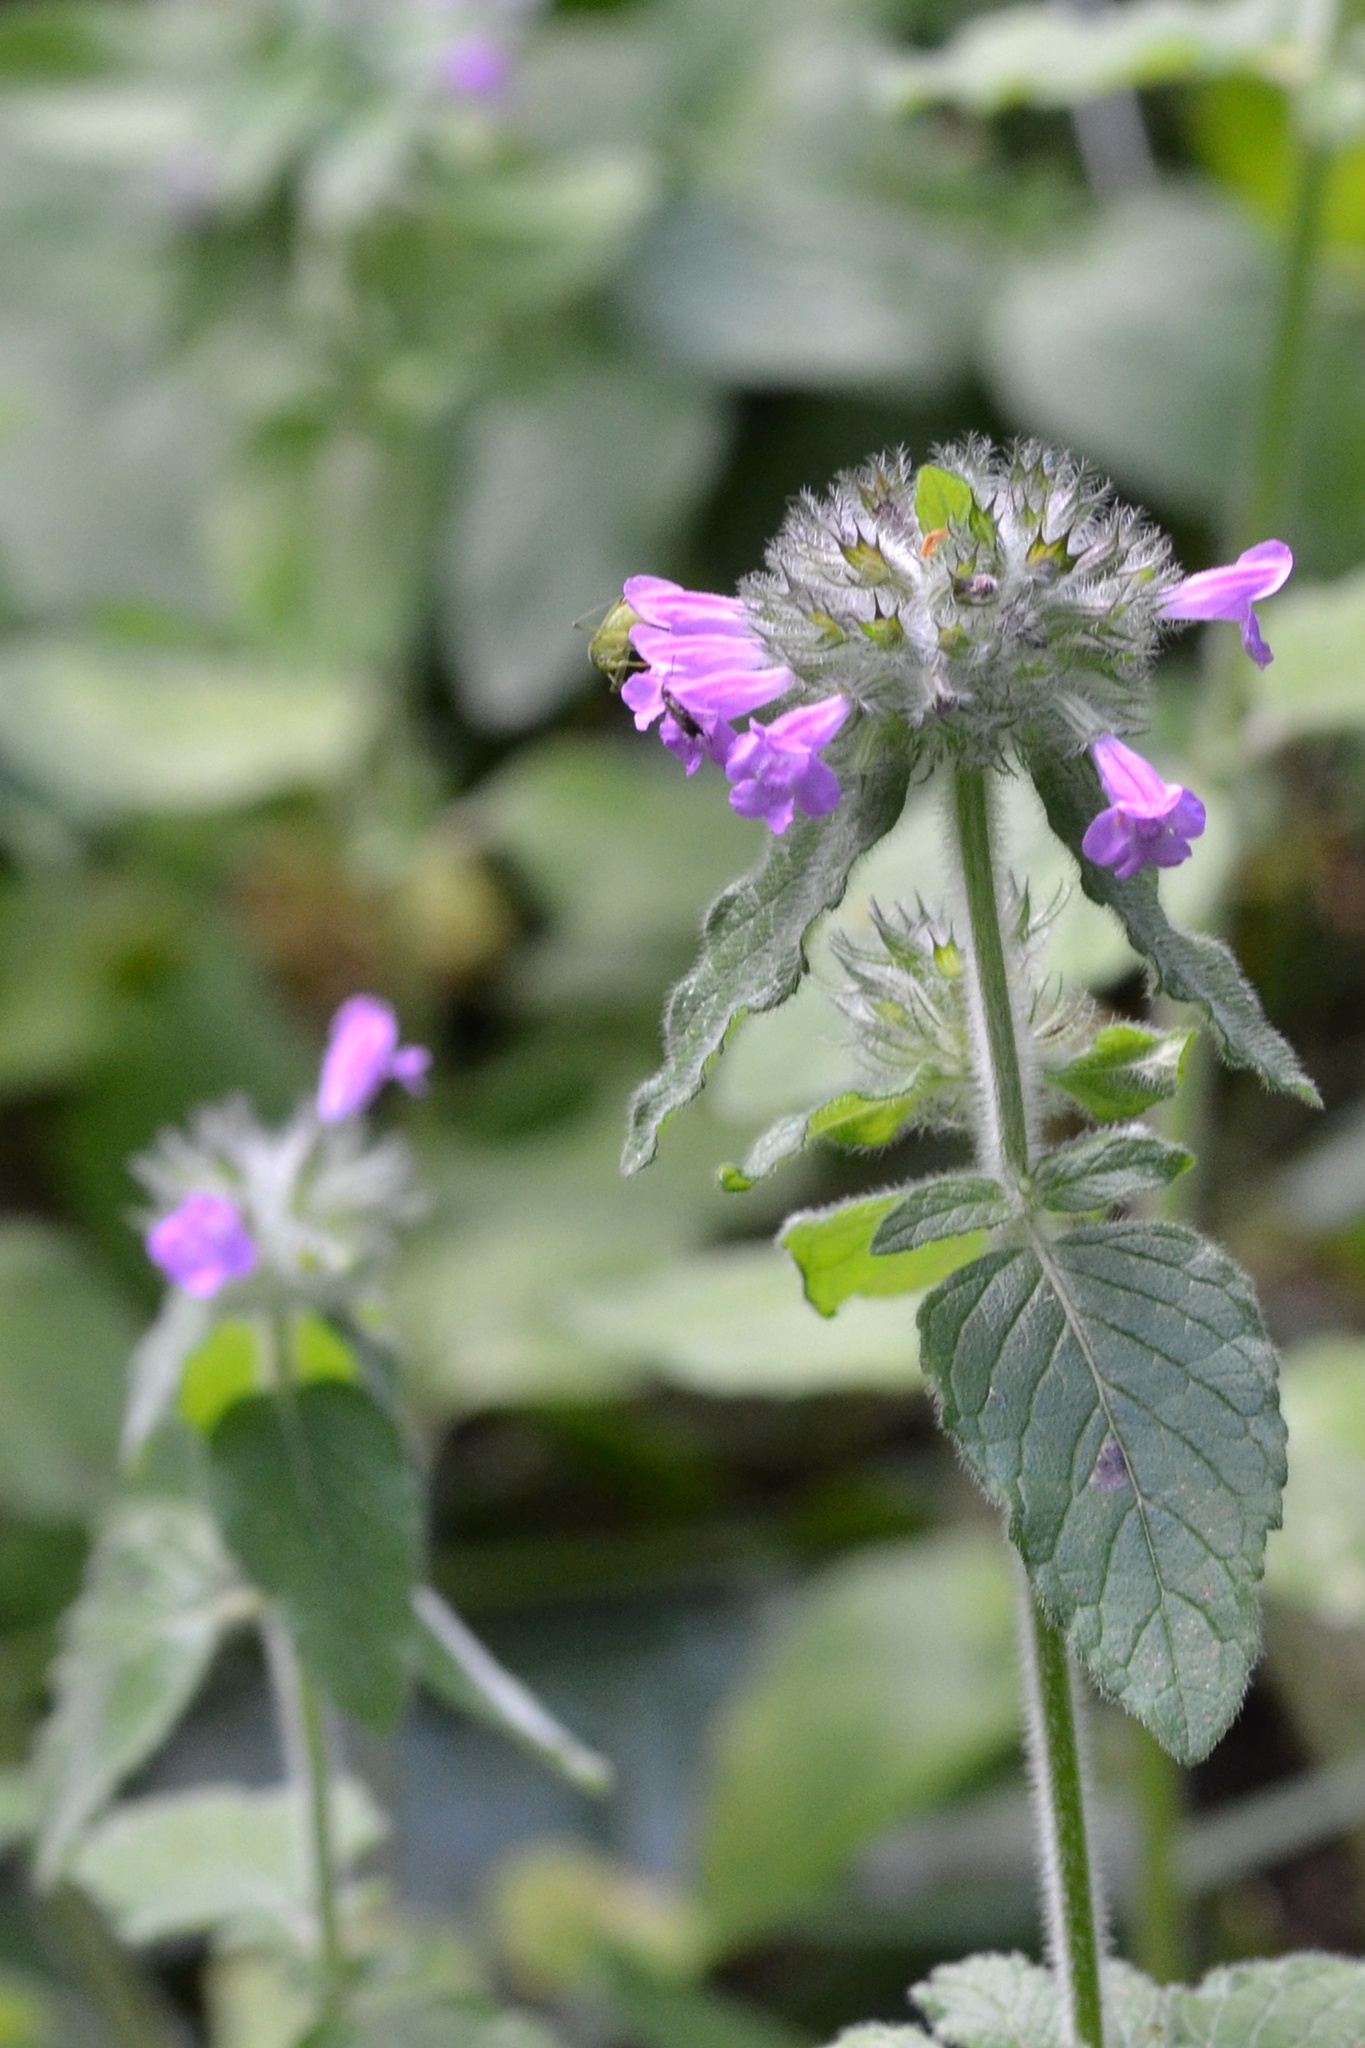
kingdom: Plantae
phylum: Tracheophyta
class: Magnoliopsida
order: Lamiales
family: Lamiaceae
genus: Clinopodium
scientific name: Clinopodium vulgare
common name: Wild basil
